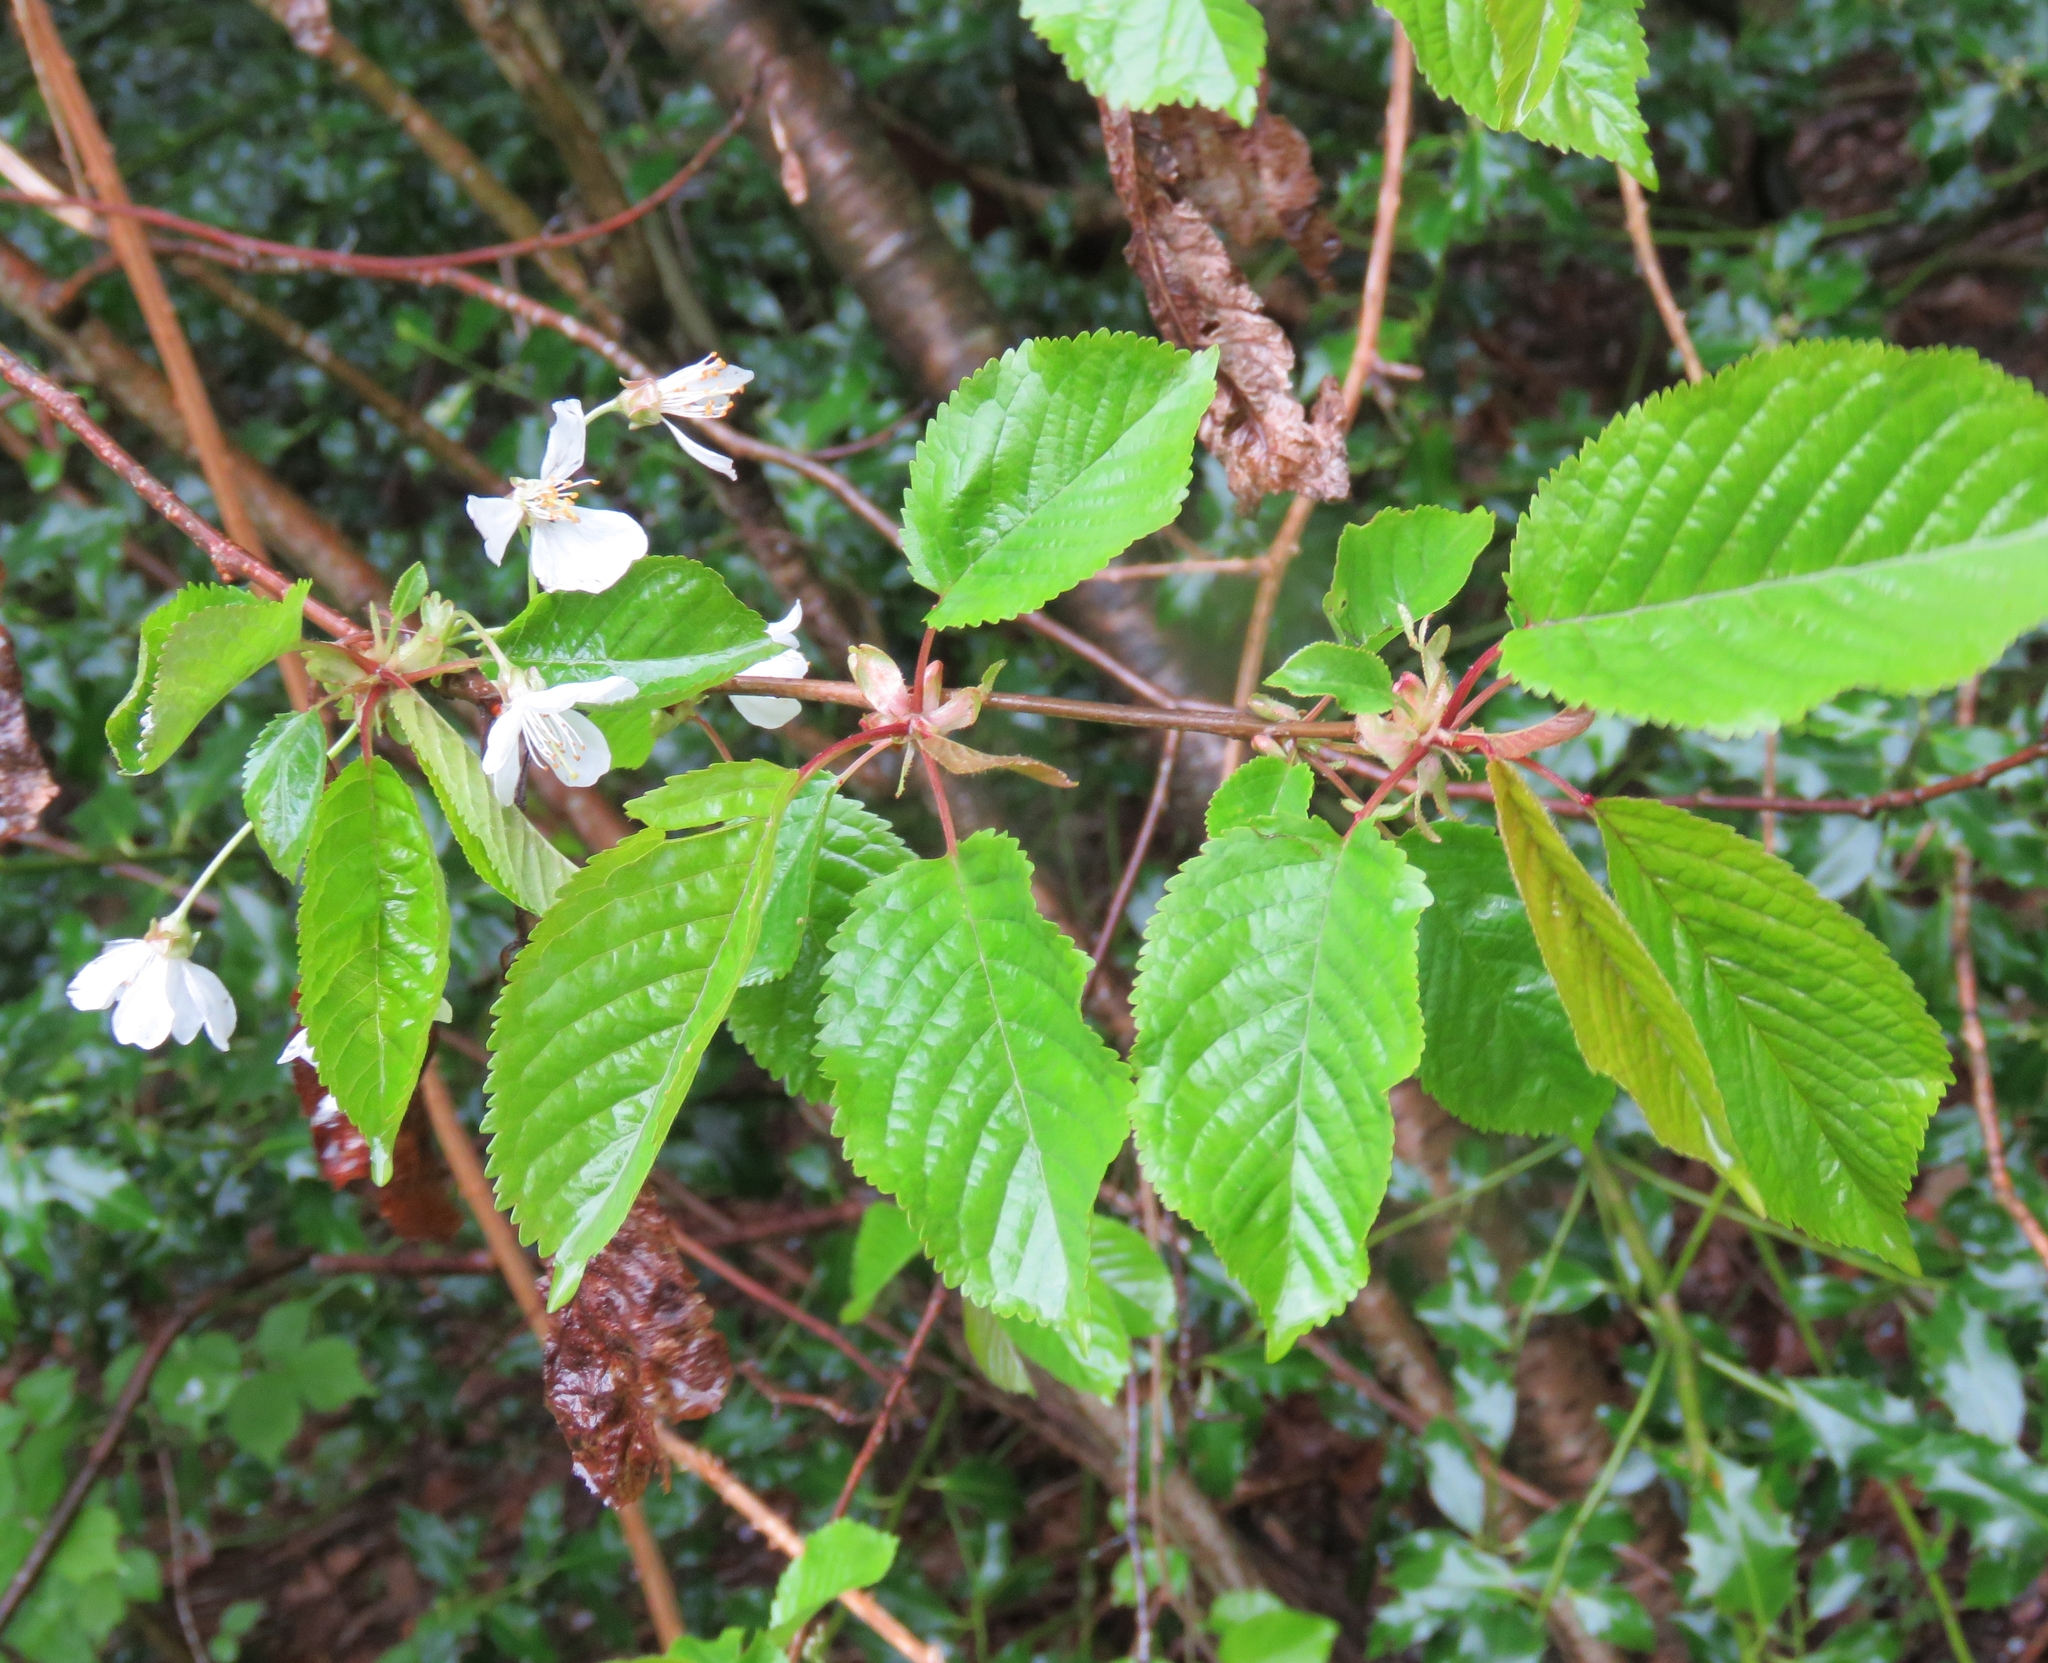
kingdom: Plantae
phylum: Tracheophyta
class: Magnoliopsida
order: Rosales
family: Rosaceae
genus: Prunus
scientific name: Prunus avium
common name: Sweet cherry
